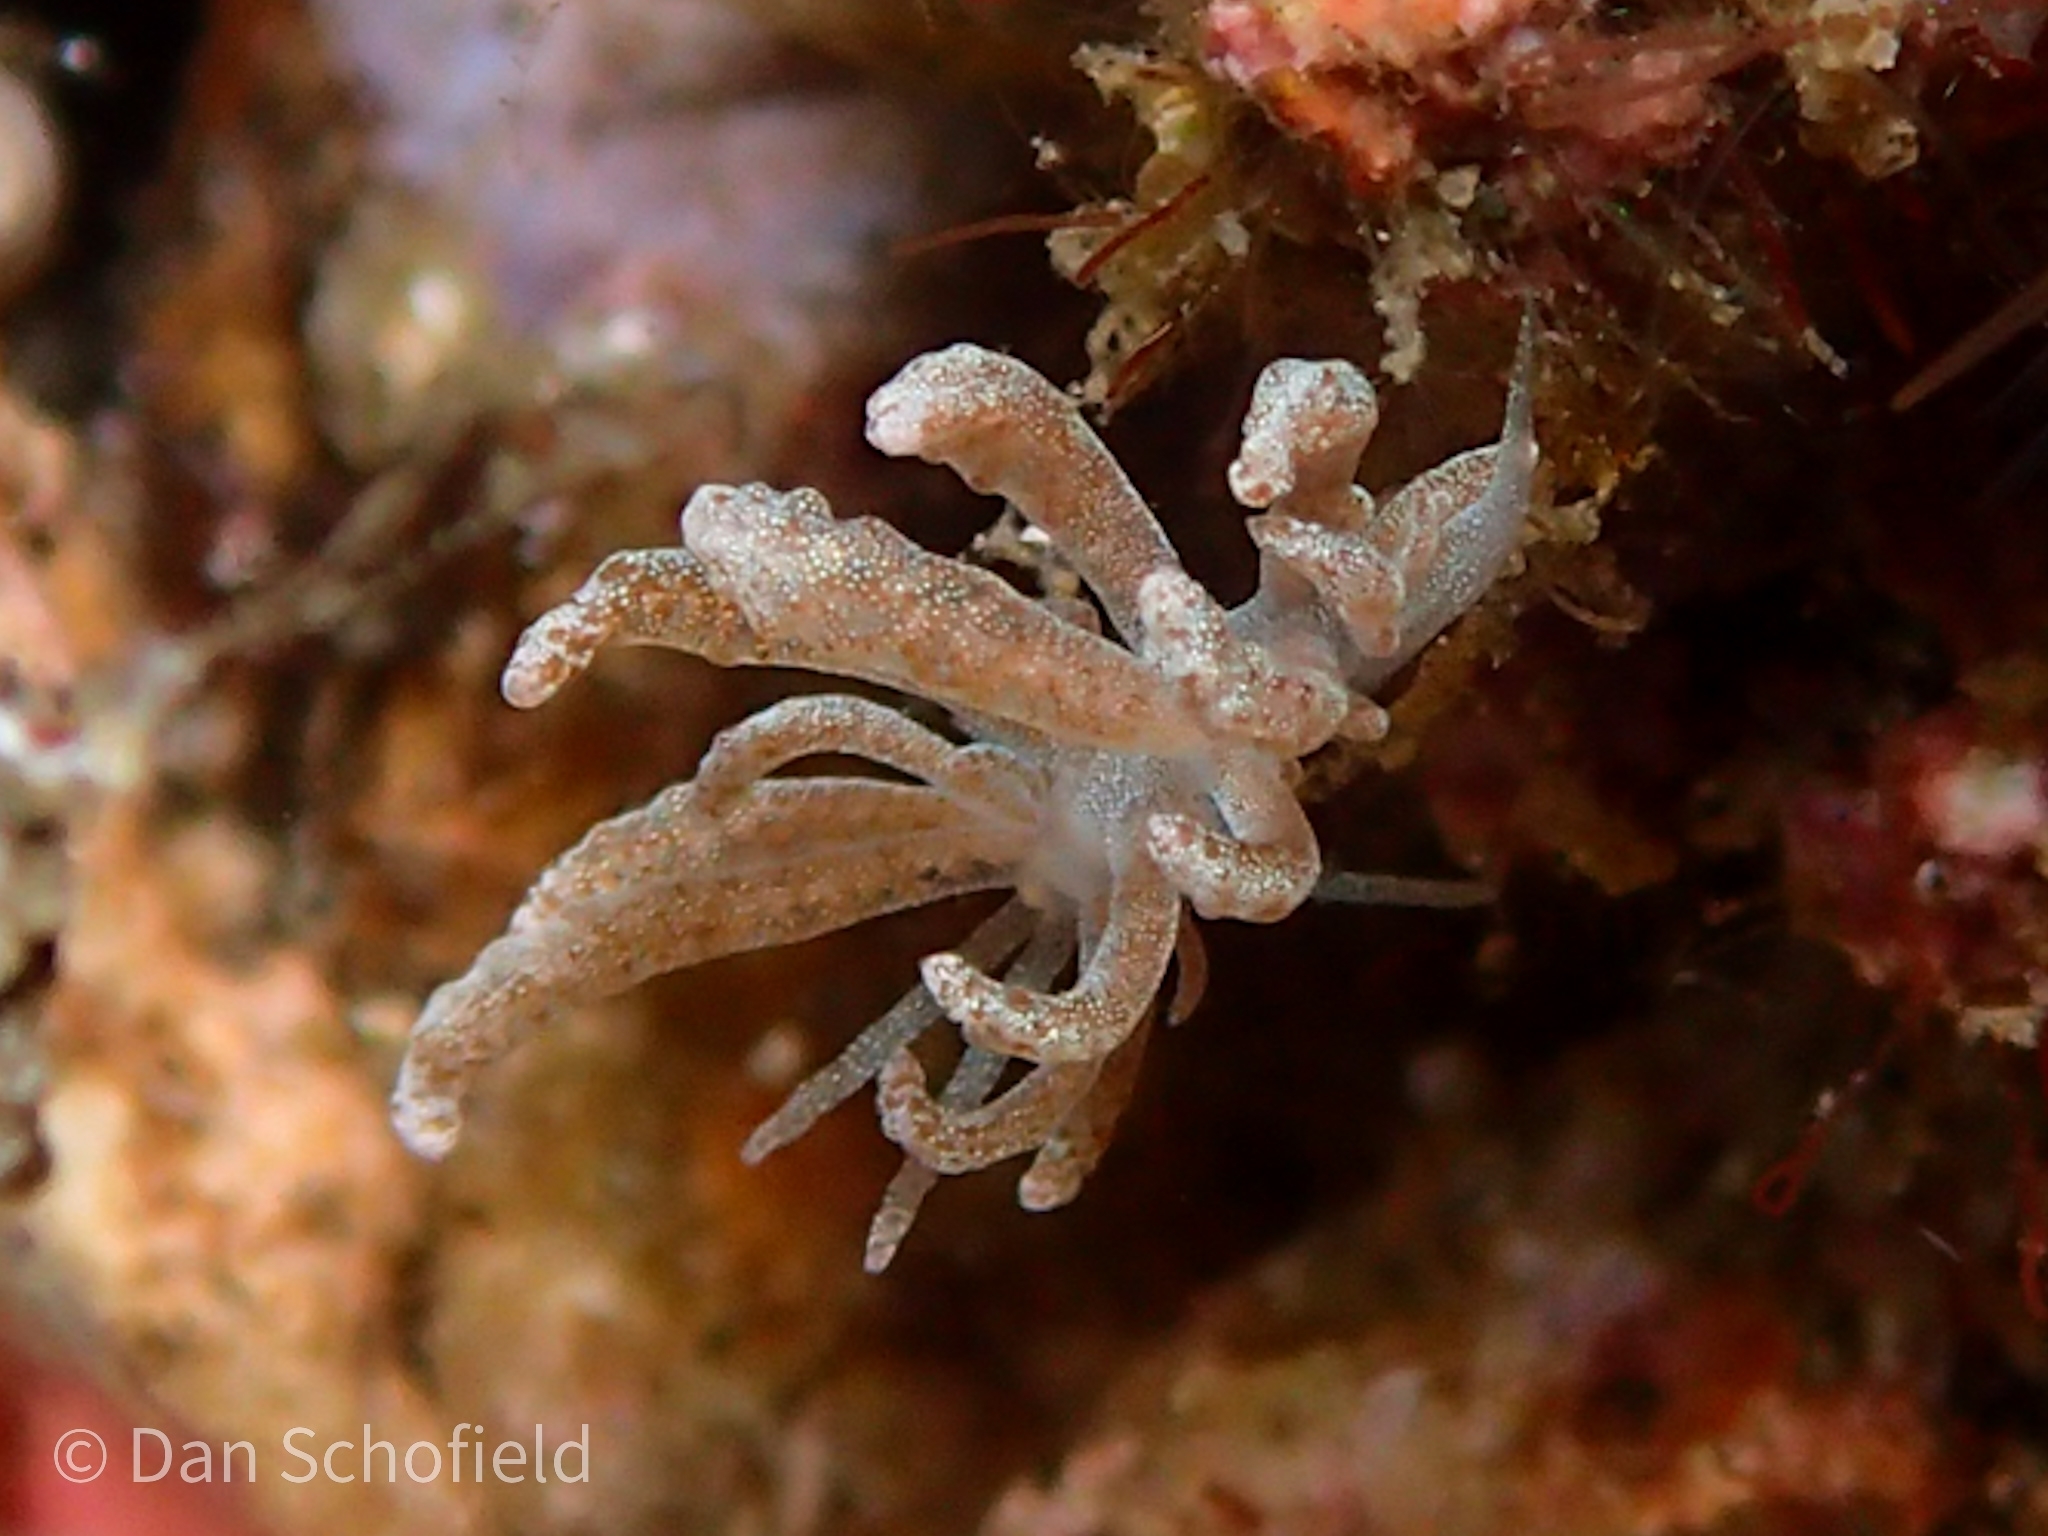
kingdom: Animalia
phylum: Mollusca
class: Gastropoda
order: Nudibranchia
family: Myrrhinidae
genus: Phyllodesmium
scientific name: Phyllodesmium crypticum
